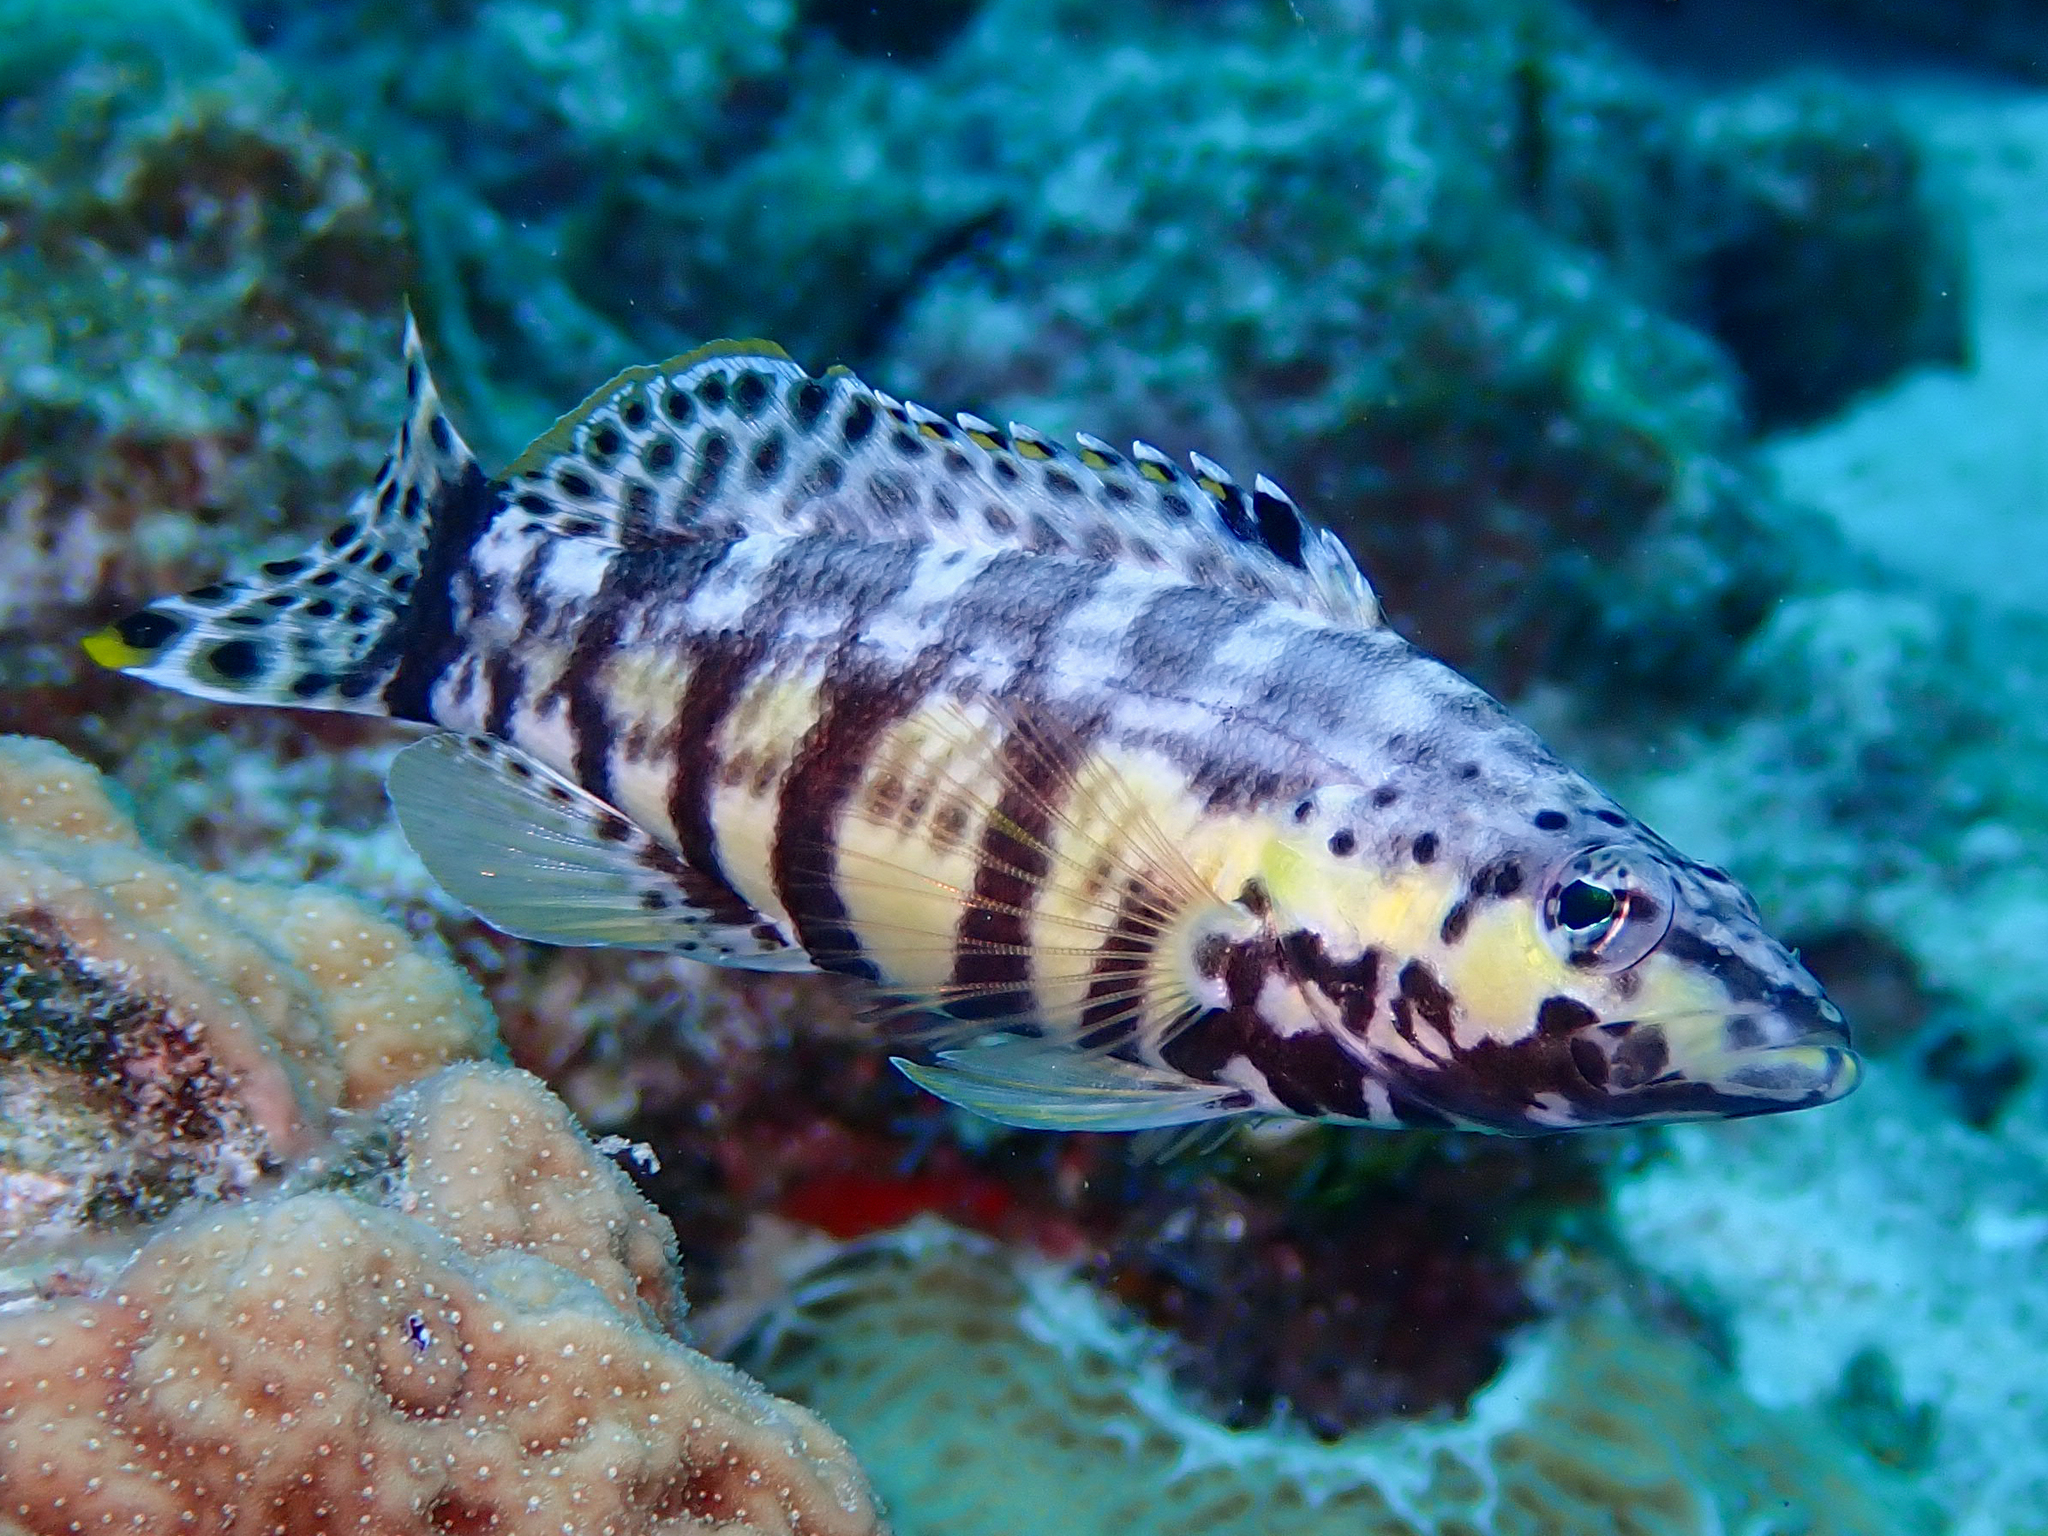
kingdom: Animalia
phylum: Chordata
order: Perciformes
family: Serranidae
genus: Serranus
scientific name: Serranus tigrinus
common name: Harlequin bass
